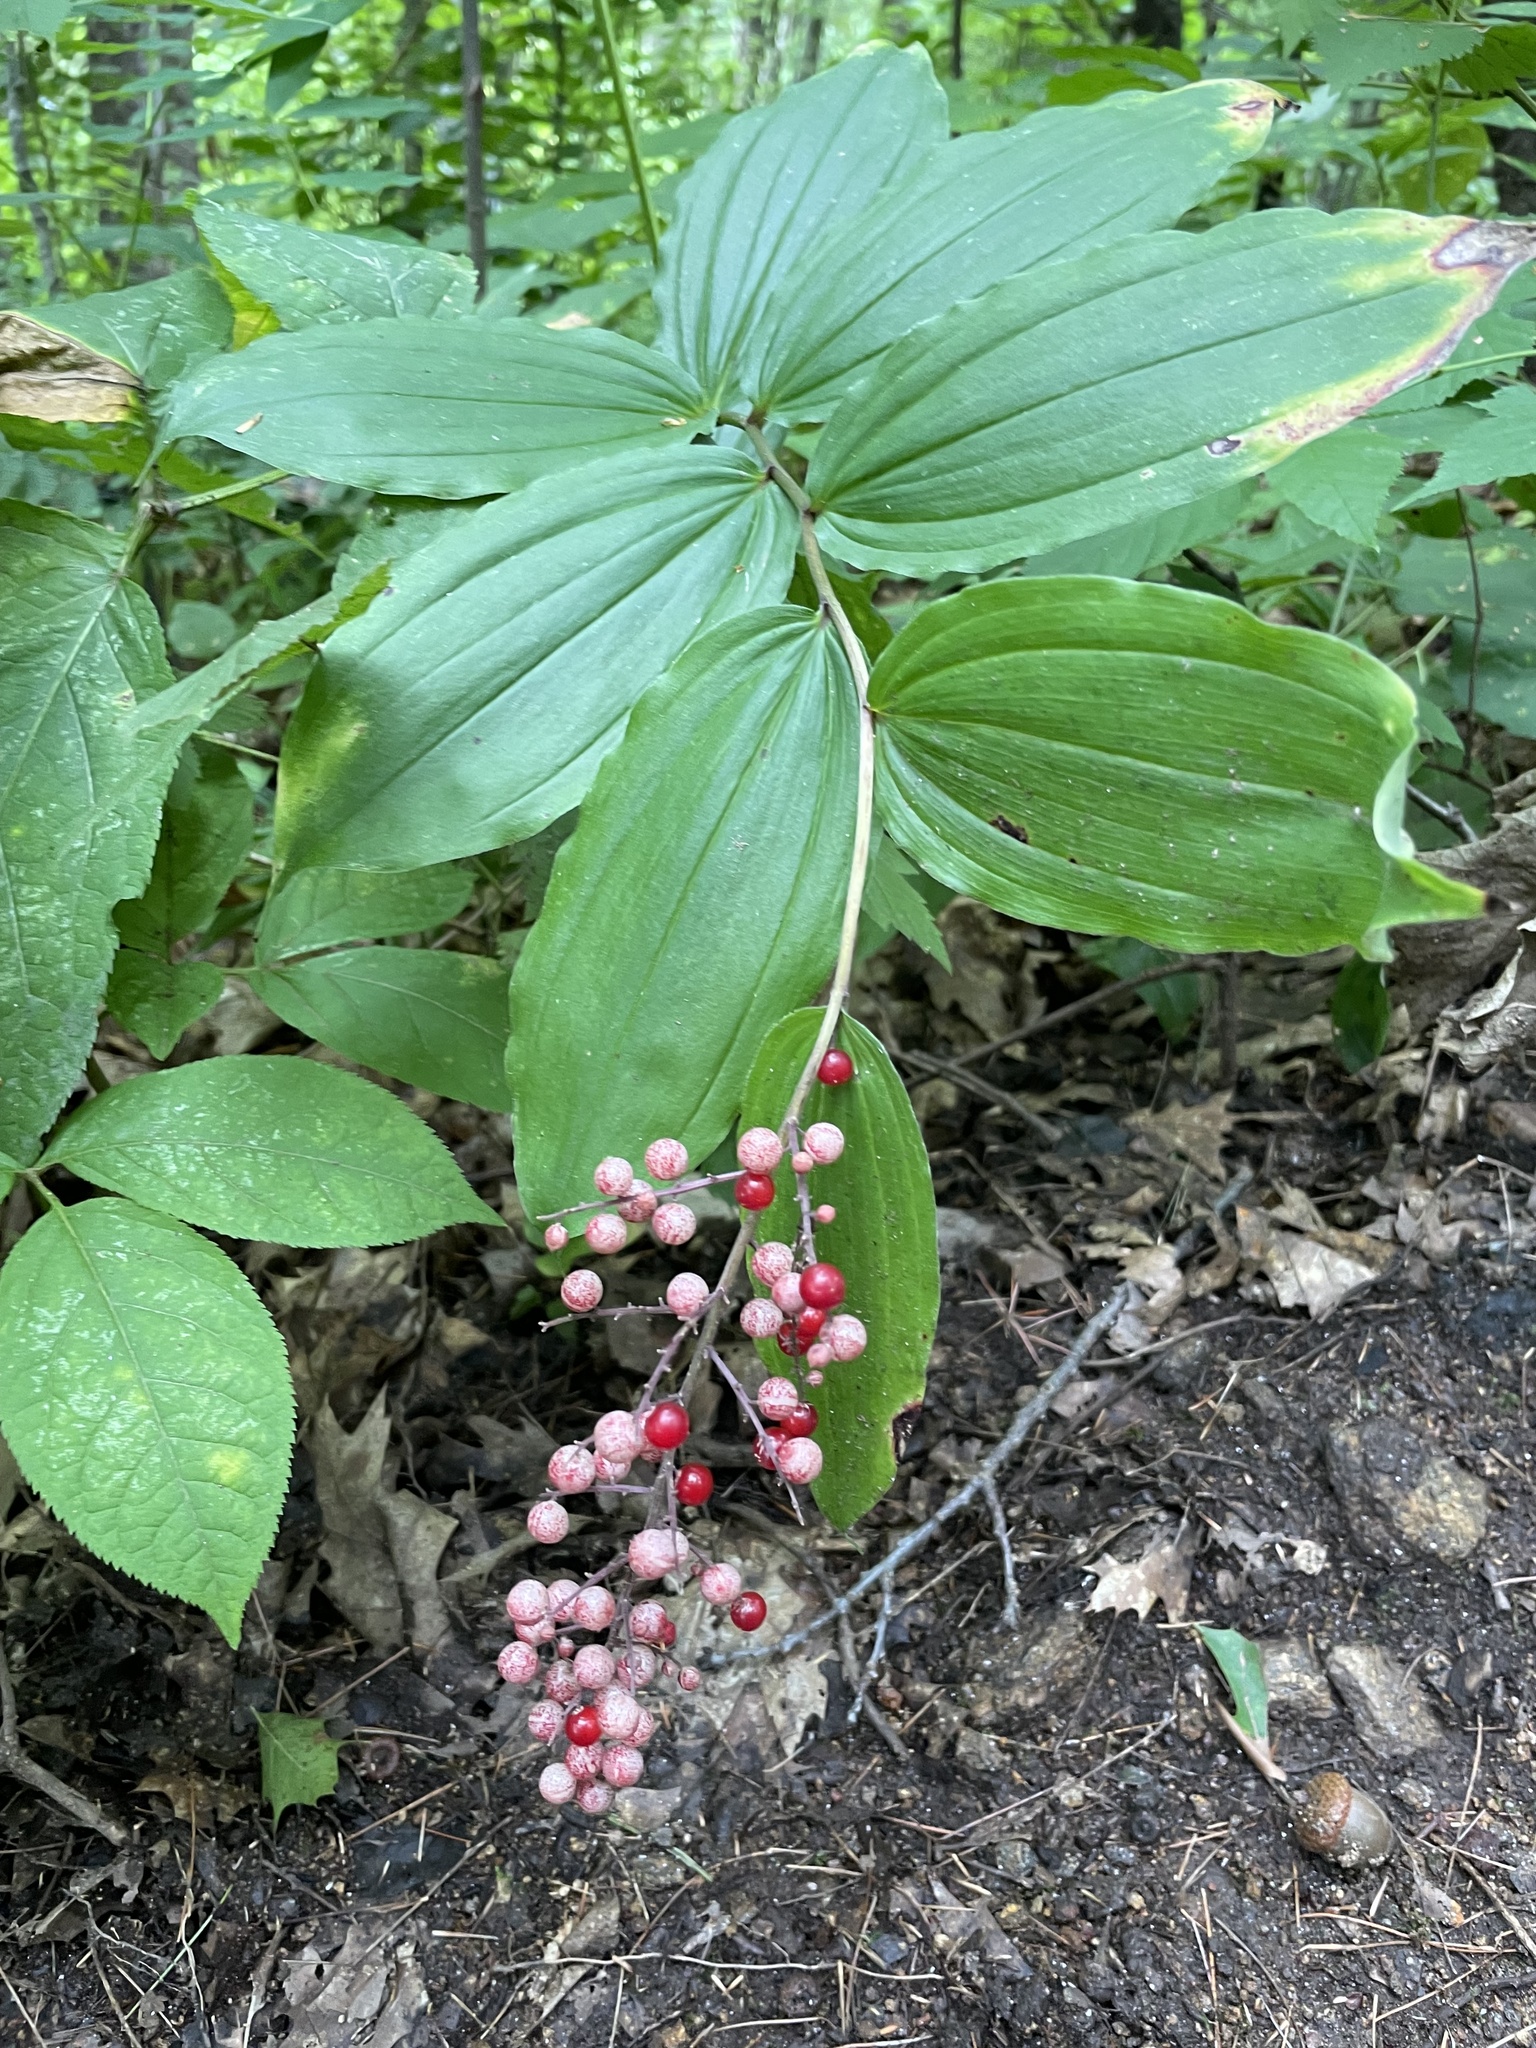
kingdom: Plantae
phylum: Tracheophyta
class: Liliopsida
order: Asparagales
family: Asparagaceae
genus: Maianthemum
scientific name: Maianthemum racemosum
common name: False spikenard
